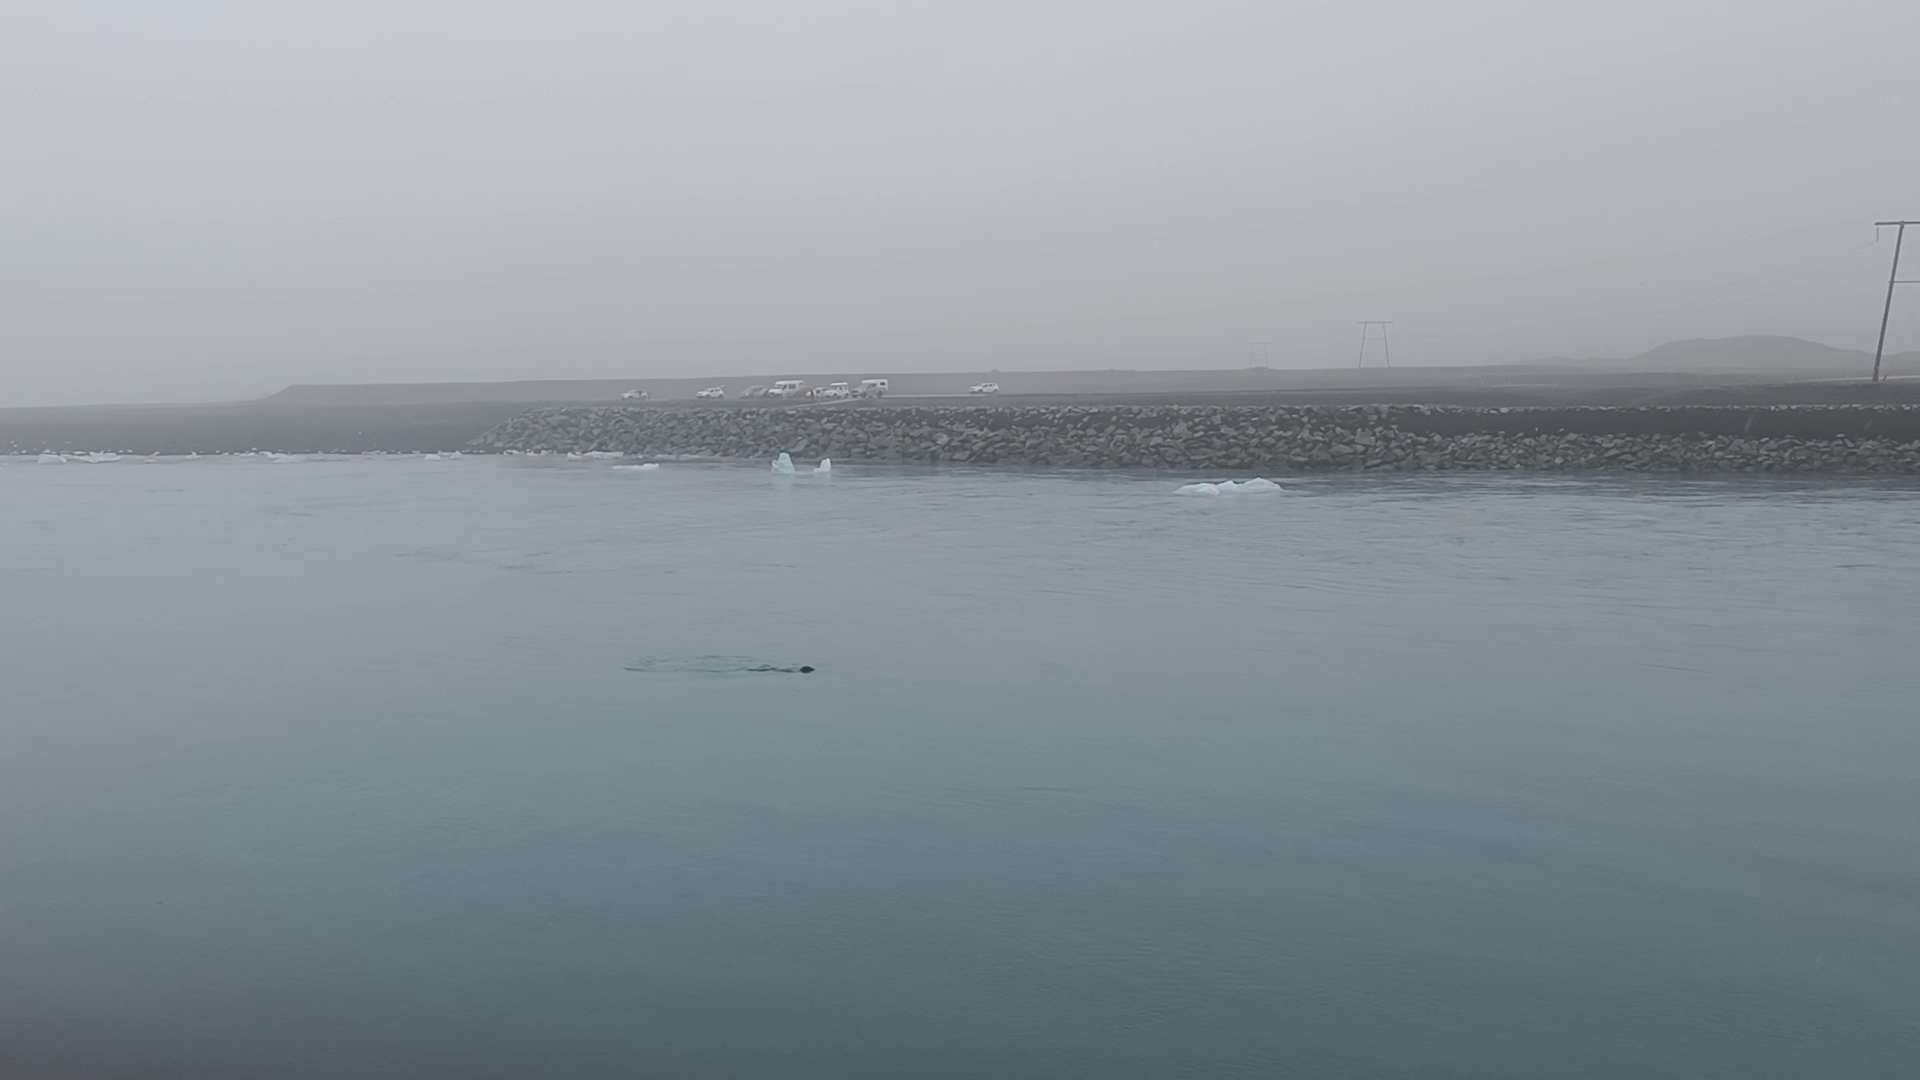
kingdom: Animalia
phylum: Chordata
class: Mammalia
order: Carnivora
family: Phocidae
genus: Phoca
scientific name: Phoca vitulina
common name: Harbor seal
